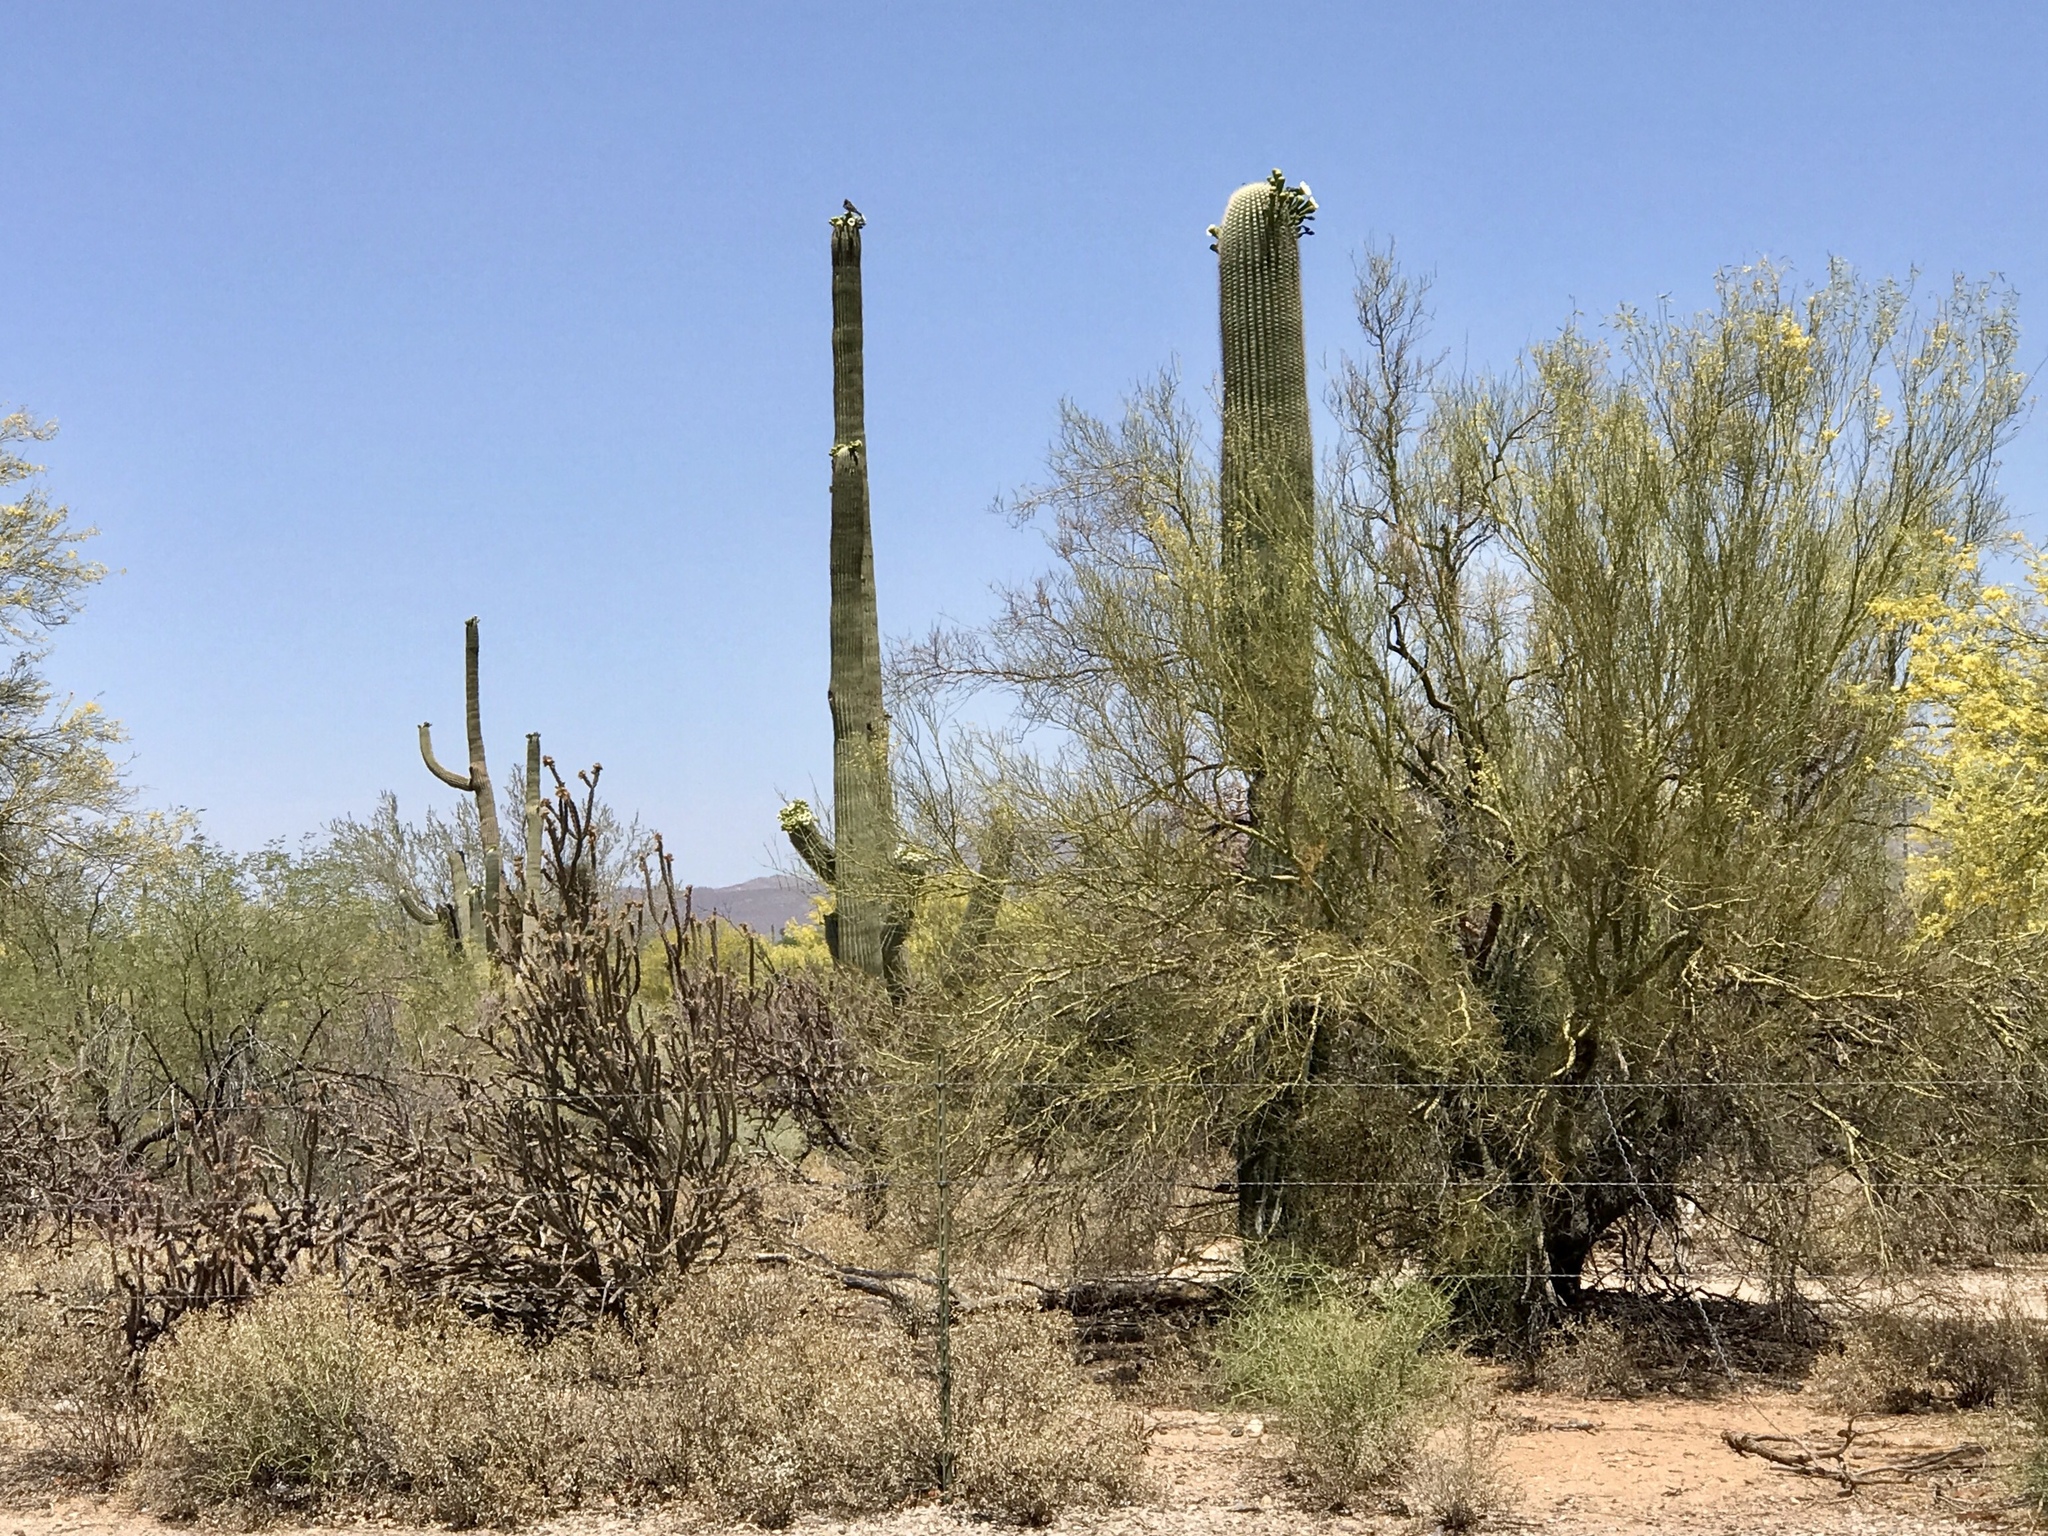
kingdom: Plantae
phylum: Tracheophyta
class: Magnoliopsida
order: Caryophyllales
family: Cactaceae
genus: Carnegiea
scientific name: Carnegiea gigantea
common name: Saguaro
